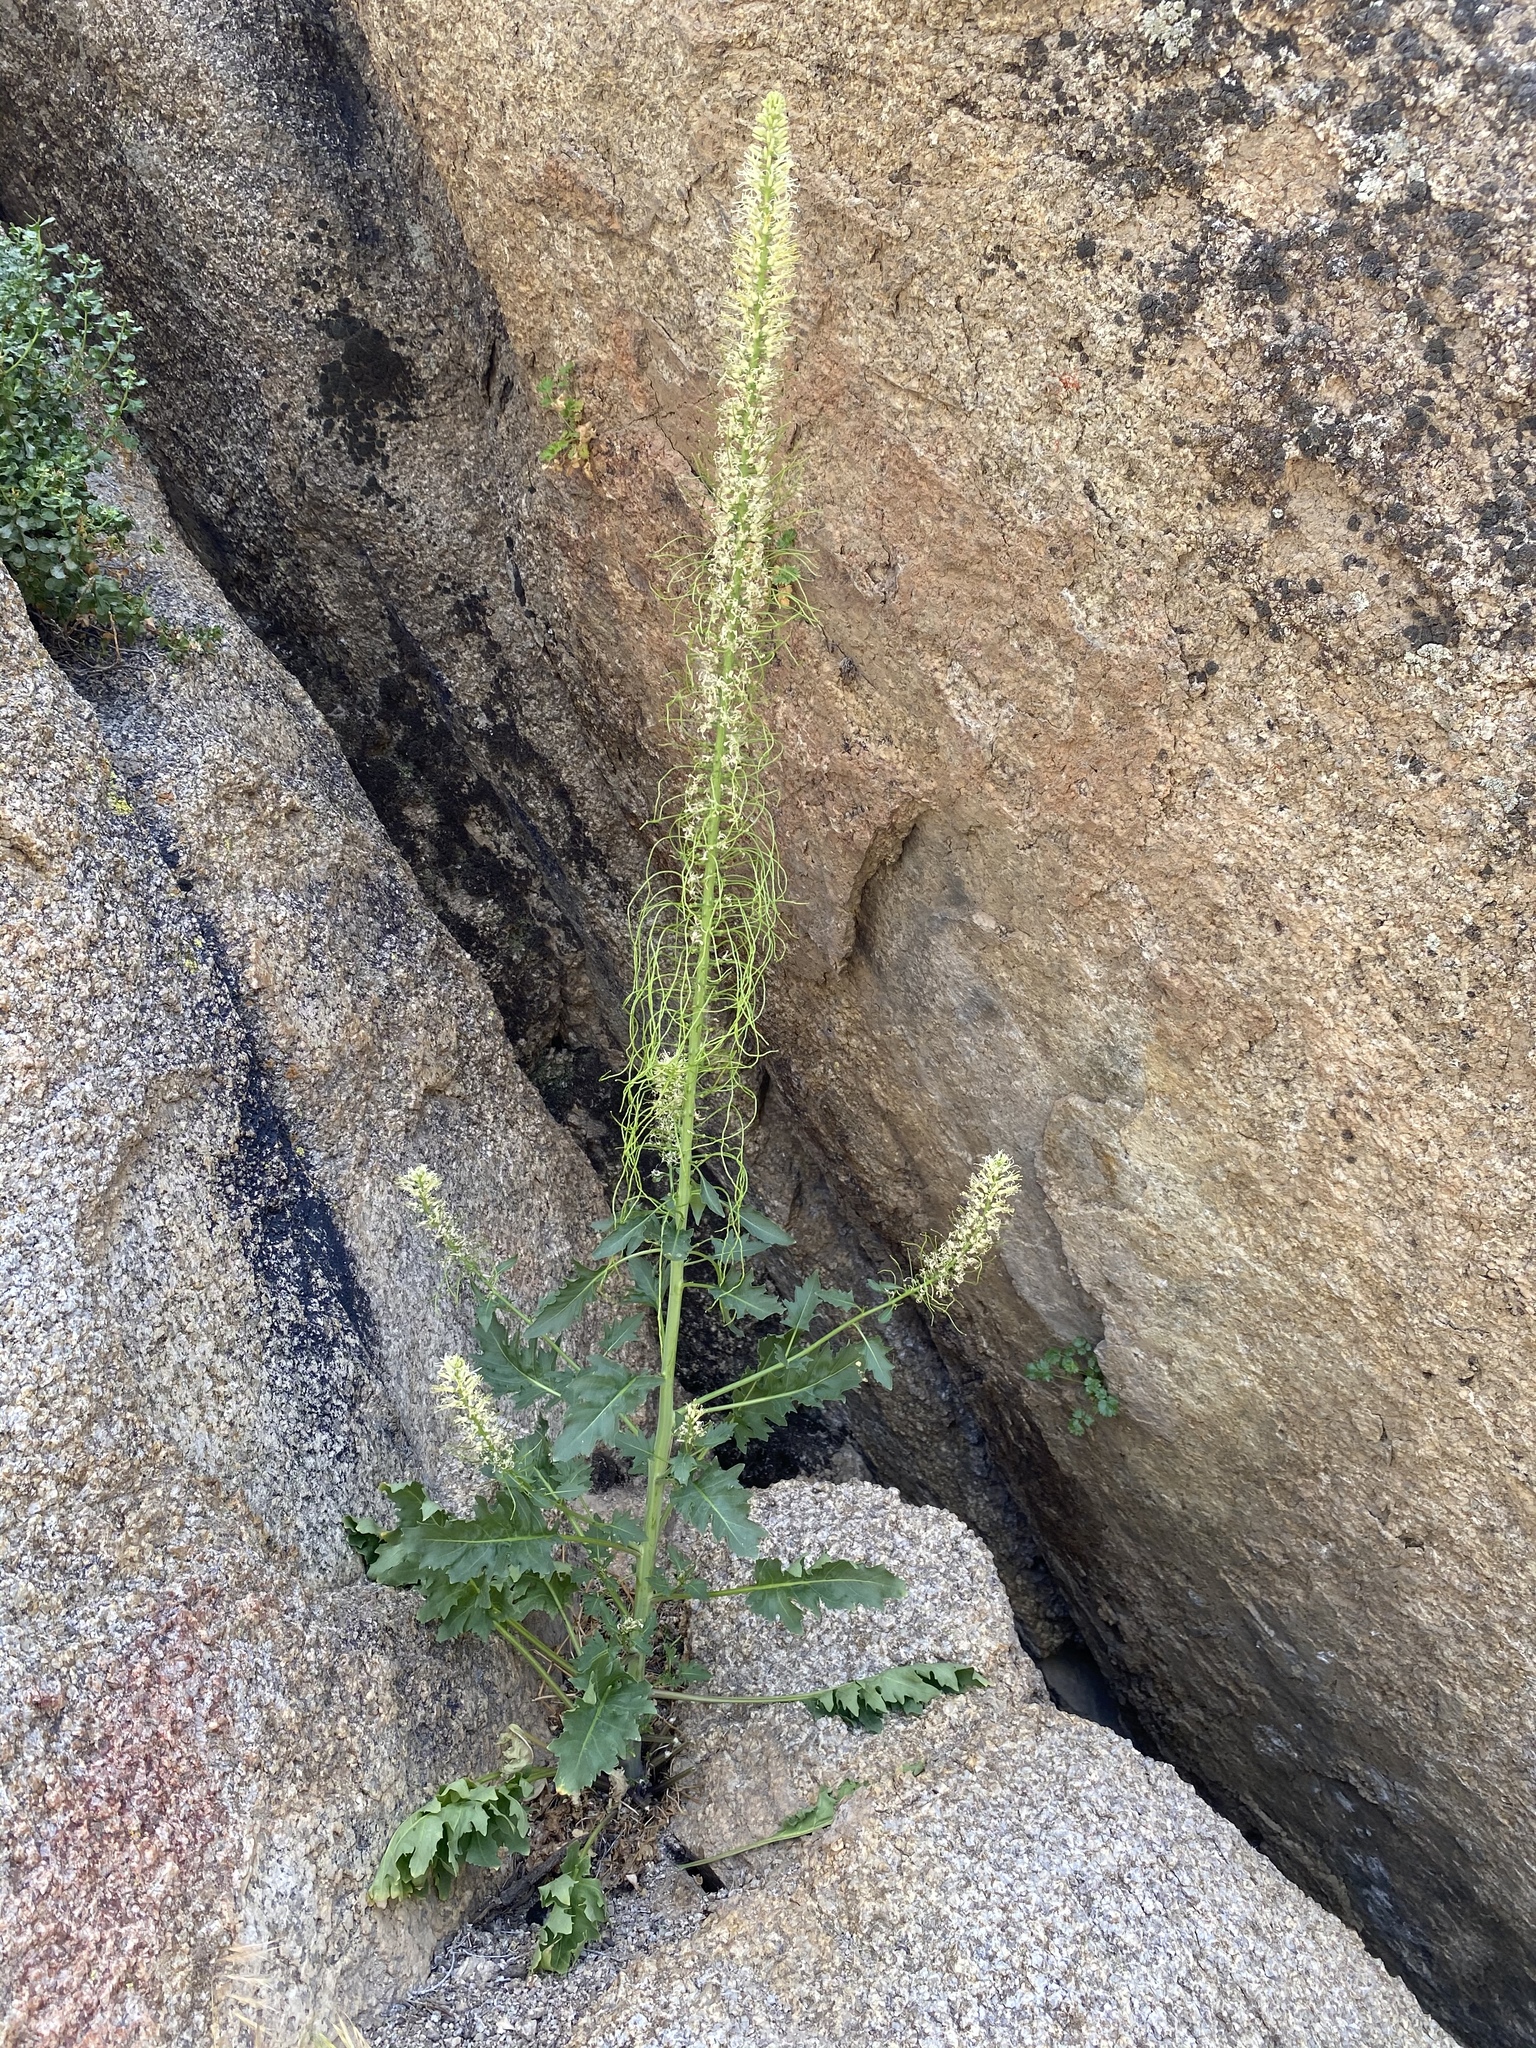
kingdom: Plantae
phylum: Tracheophyta
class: Magnoliopsida
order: Brassicales
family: Brassicaceae
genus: Thelypodium
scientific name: Thelypodium laciniatum
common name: Cut-leaved thelypody
